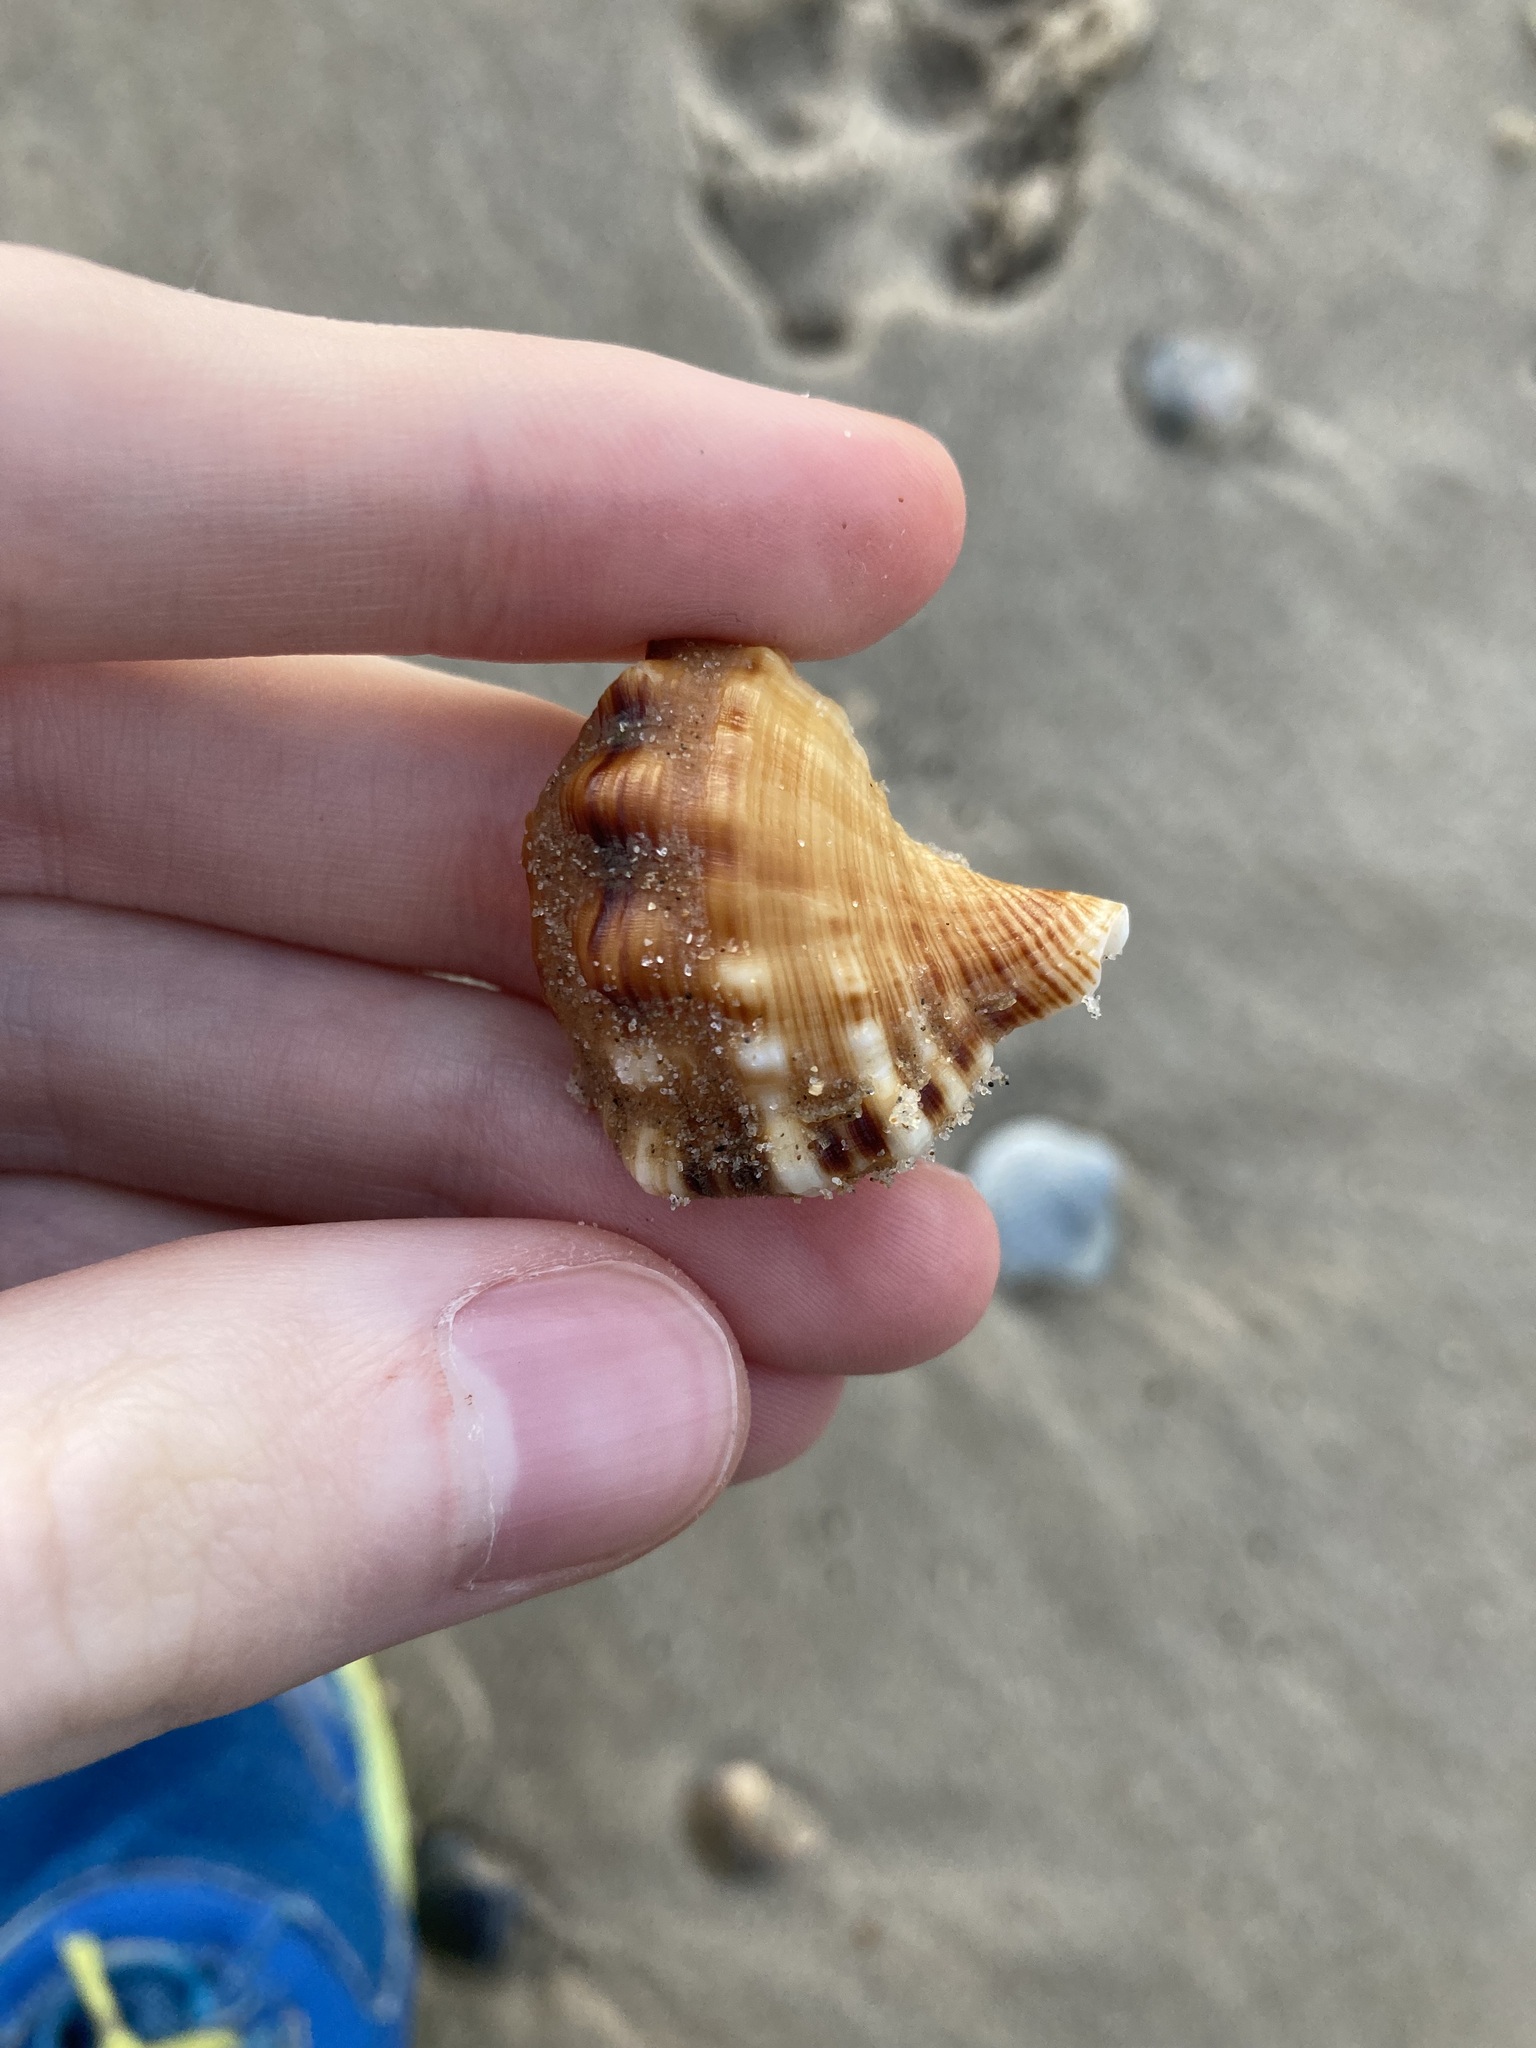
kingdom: Animalia
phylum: Mollusca
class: Gastropoda
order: Littorinimorpha
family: Ranellidae
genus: Ranella
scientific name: Ranella australasia
